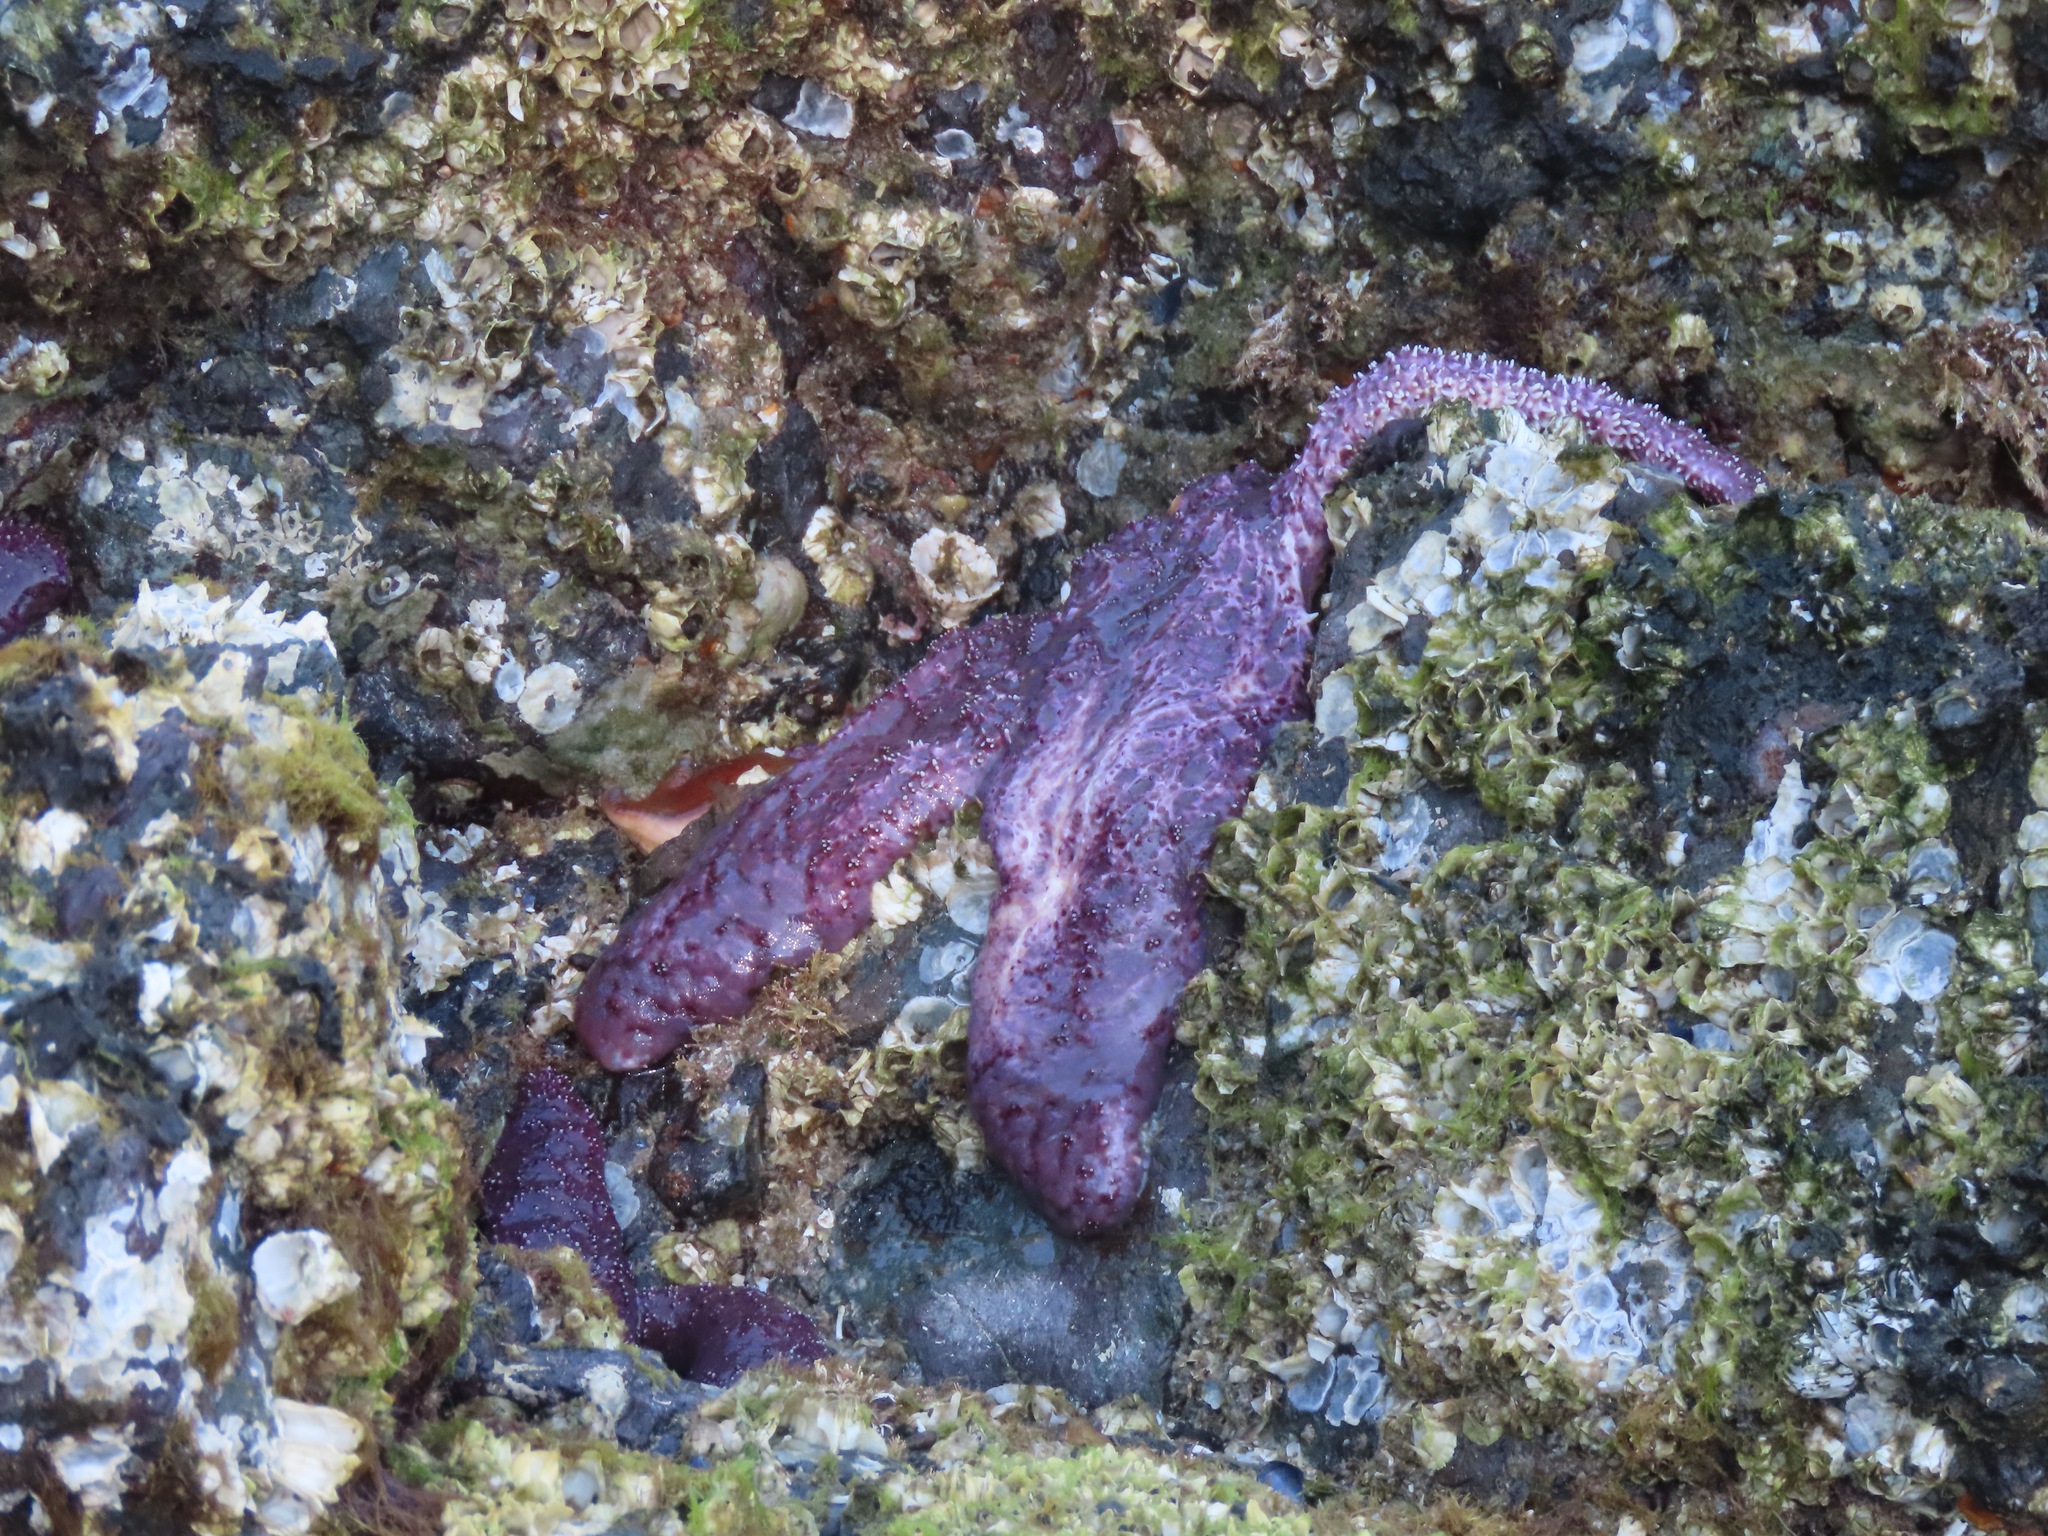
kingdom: Animalia
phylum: Echinodermata
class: Asteroidea
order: Forcipulatida
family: Asteriidae
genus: Pisaster
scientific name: Pisaster ochraceus
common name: Ochre stars
